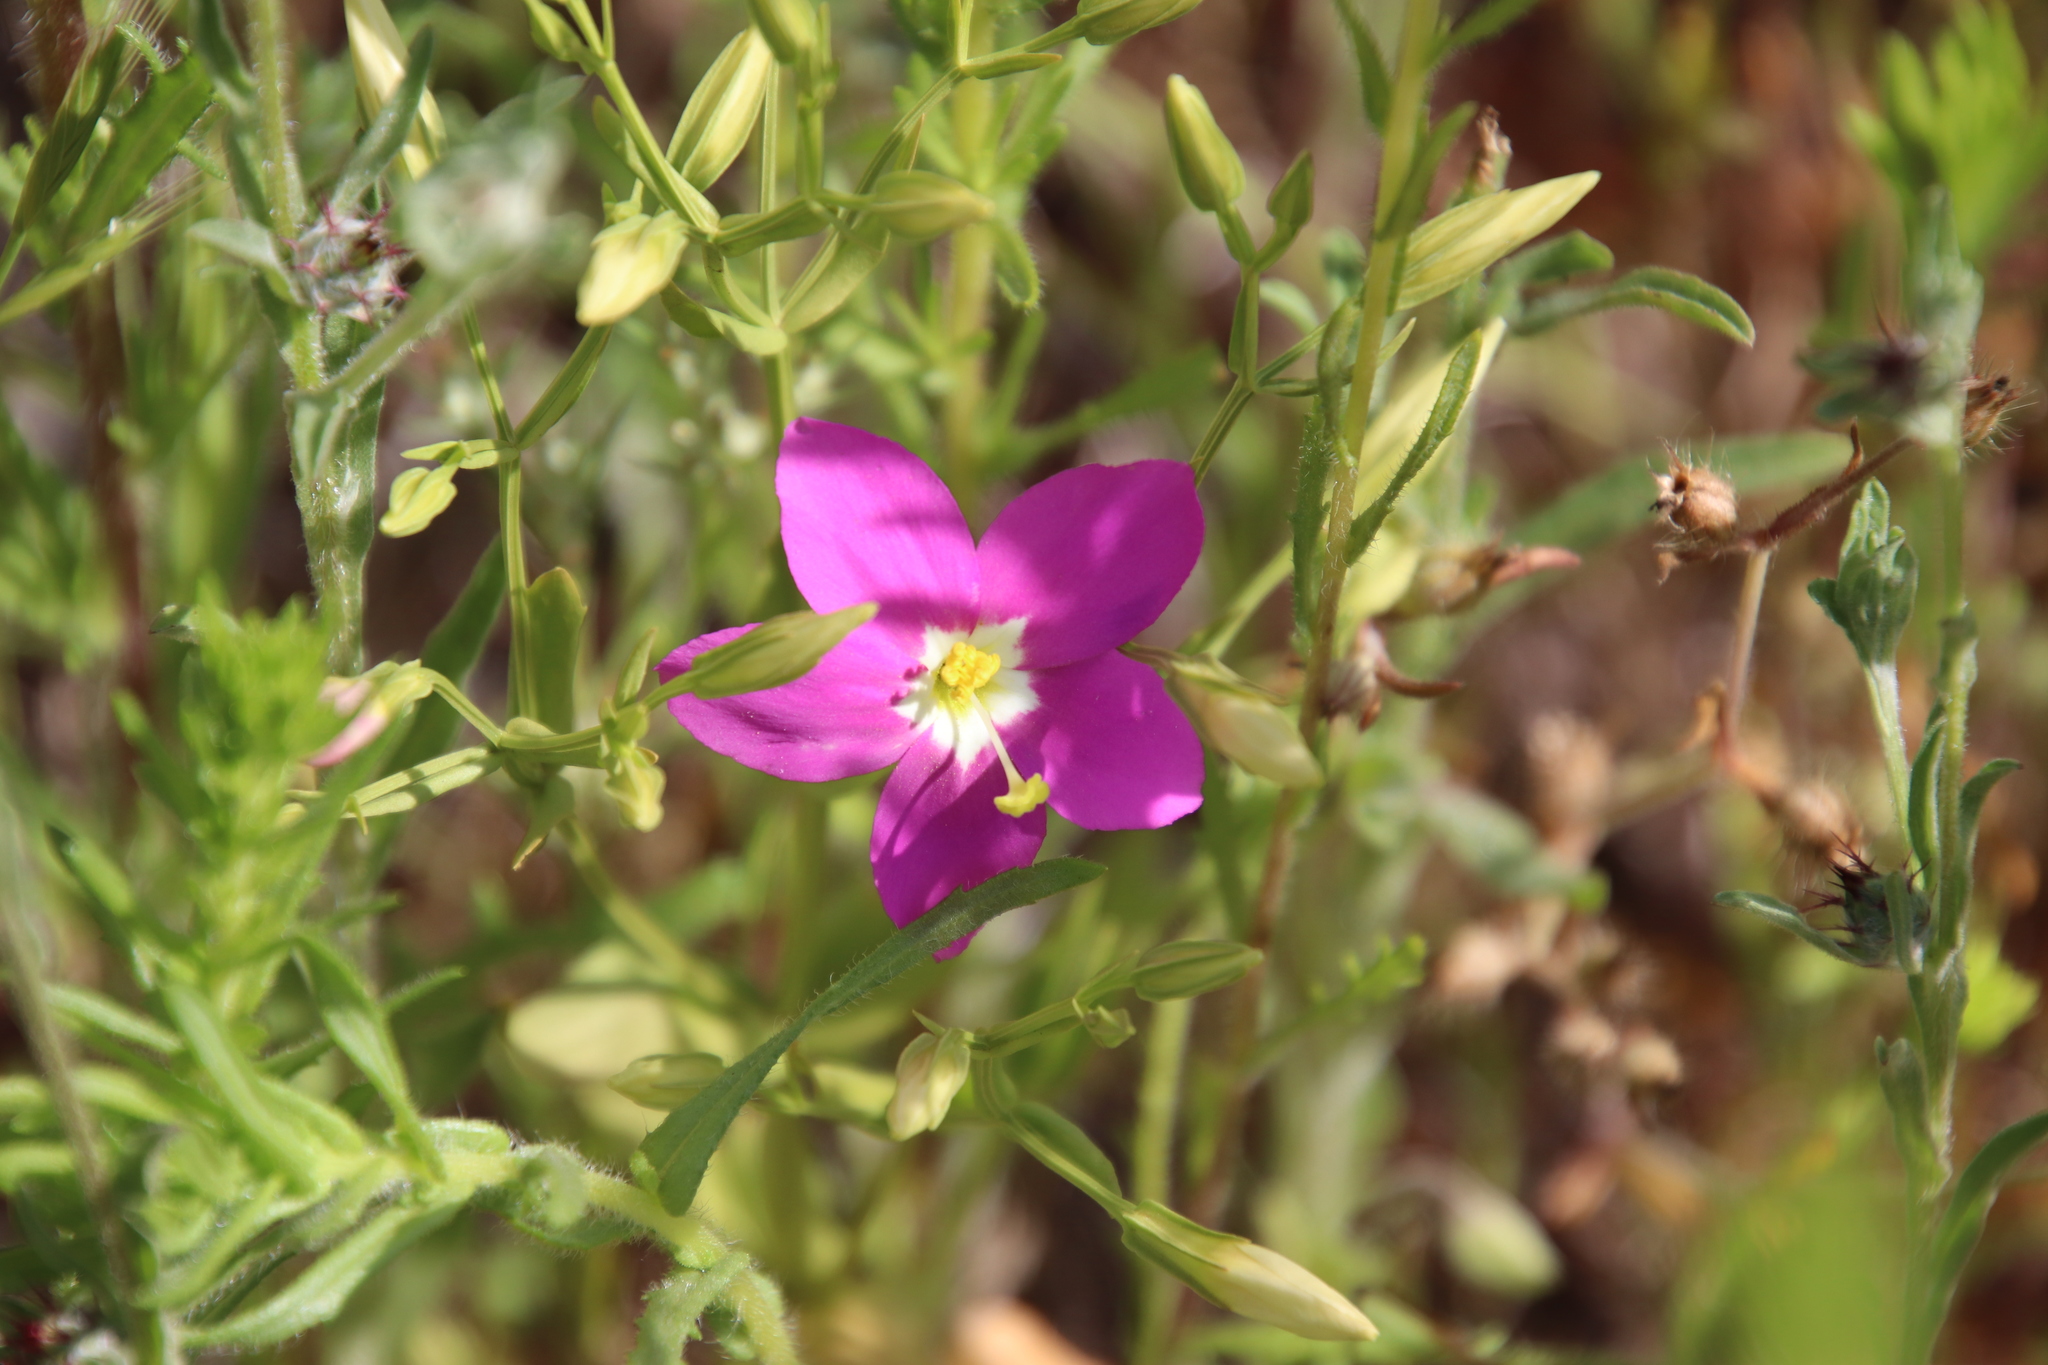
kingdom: Plantae
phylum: Tracheophyta
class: Magnoliopsida
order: Gentianales
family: Gentianaceae
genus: Zeltnera
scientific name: Zeltnera venusta
